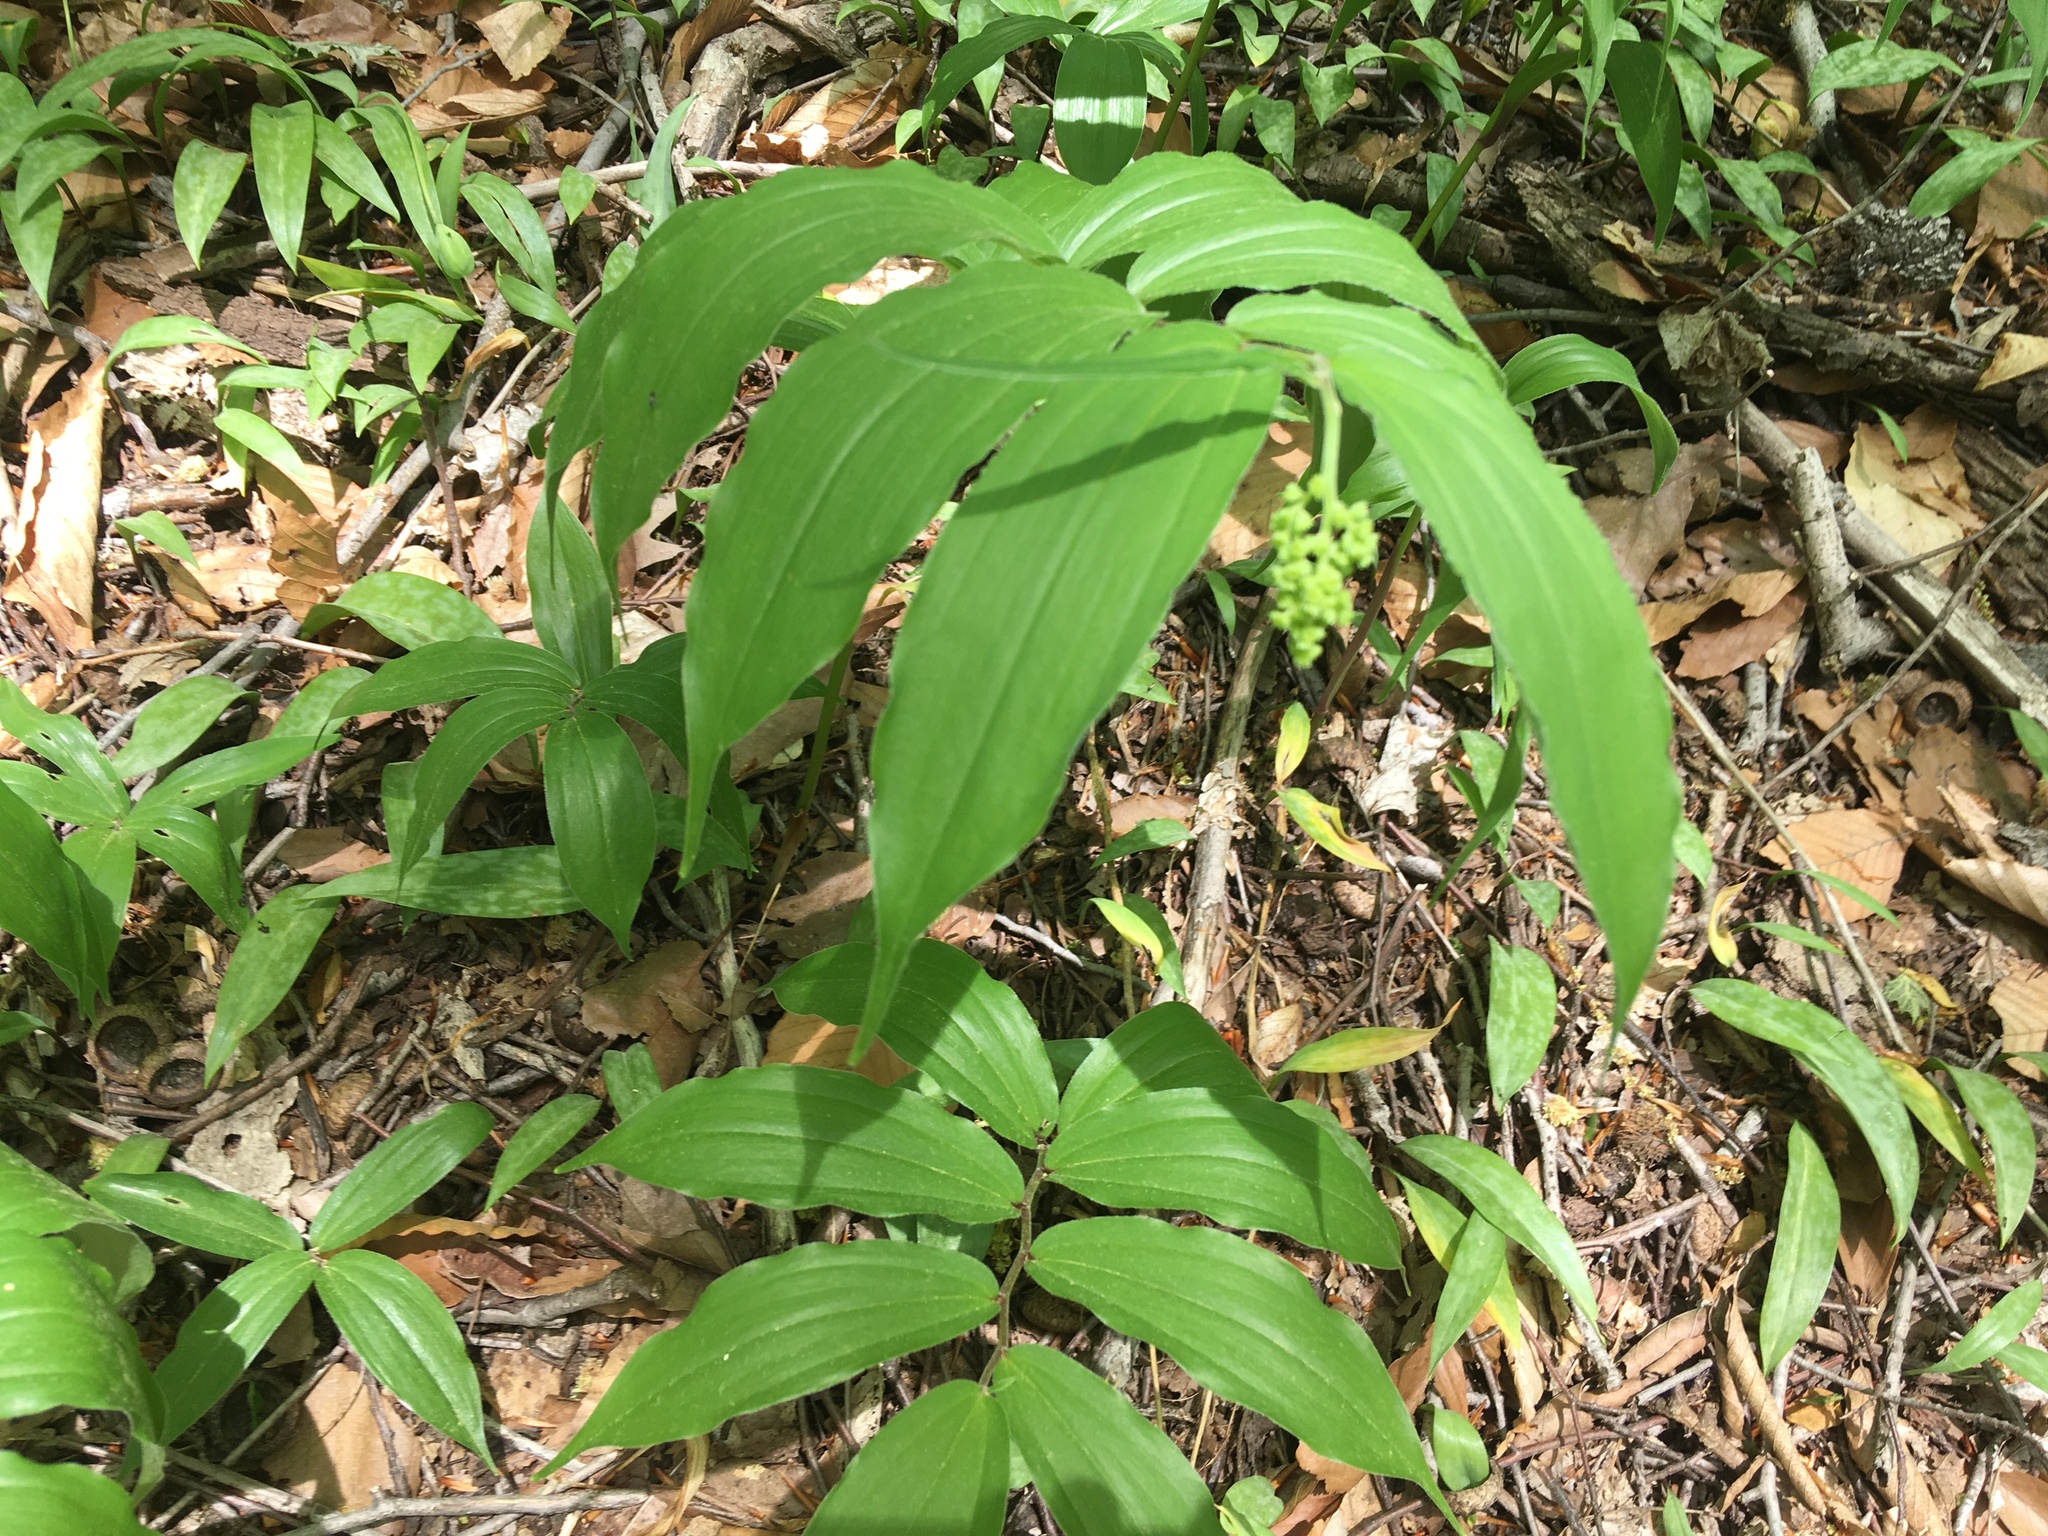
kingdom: Plantae
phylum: Tracheophyta
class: Liliopsida
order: Asparagales
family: Asparagaceae
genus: Maianthemum
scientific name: Maianthemum racemosum
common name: False spikenard
